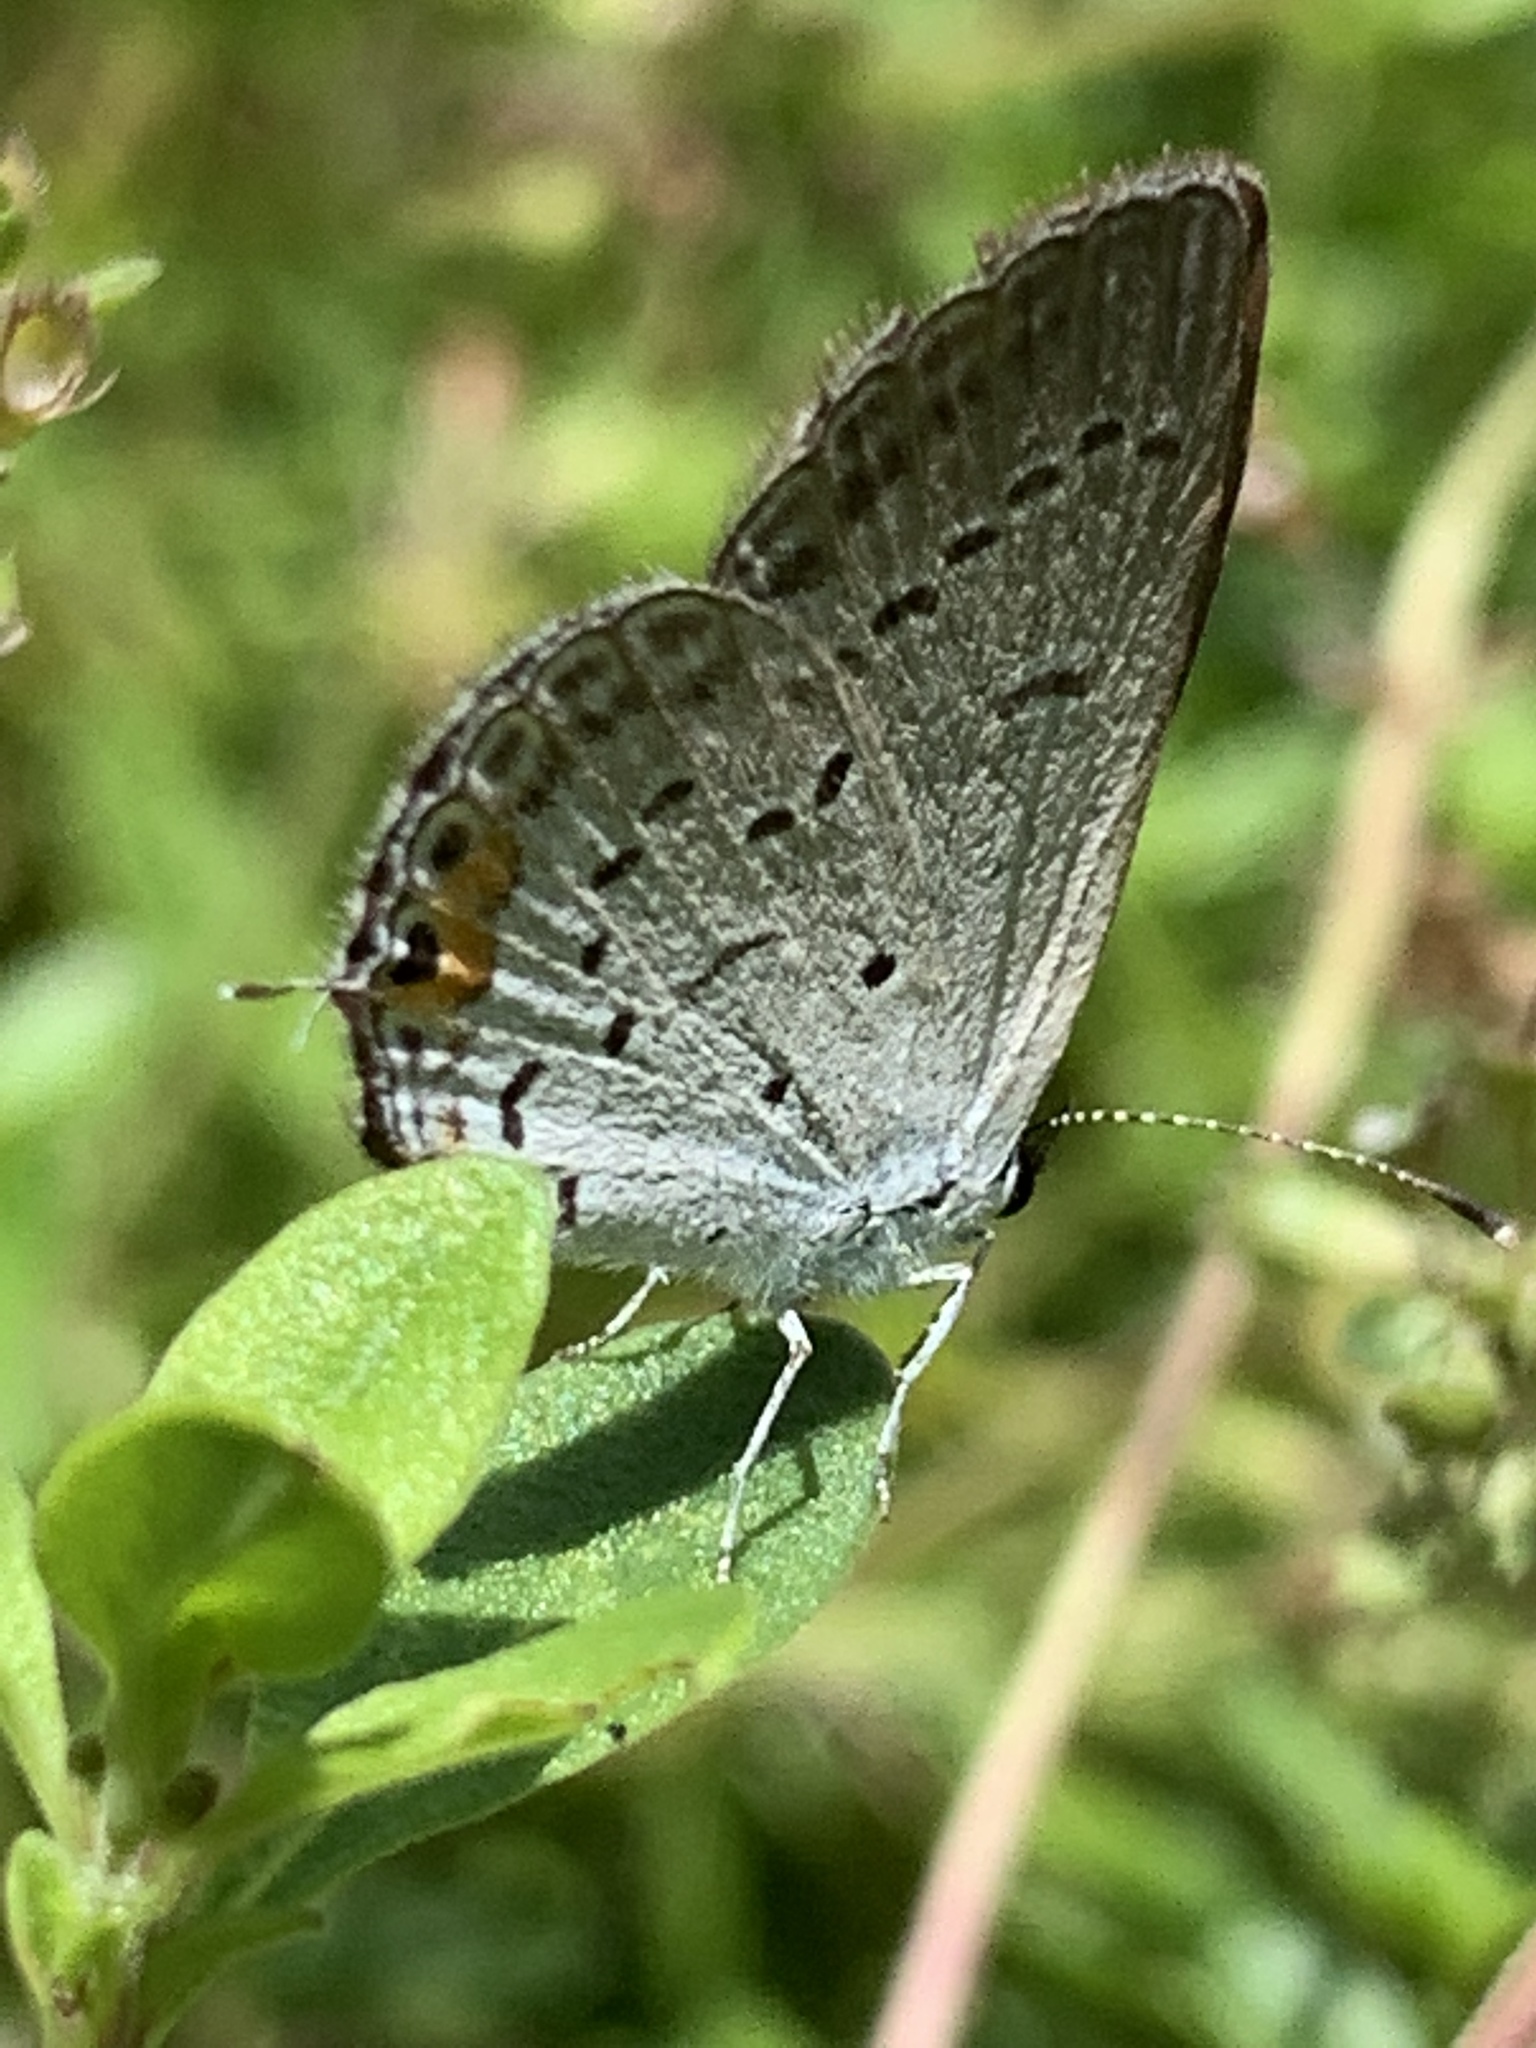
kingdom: Animalia
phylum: Arthropoda
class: Insecta
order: Lepidoptera
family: Lycaenidae
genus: Elkalyce
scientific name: Elkalyce comyntas
